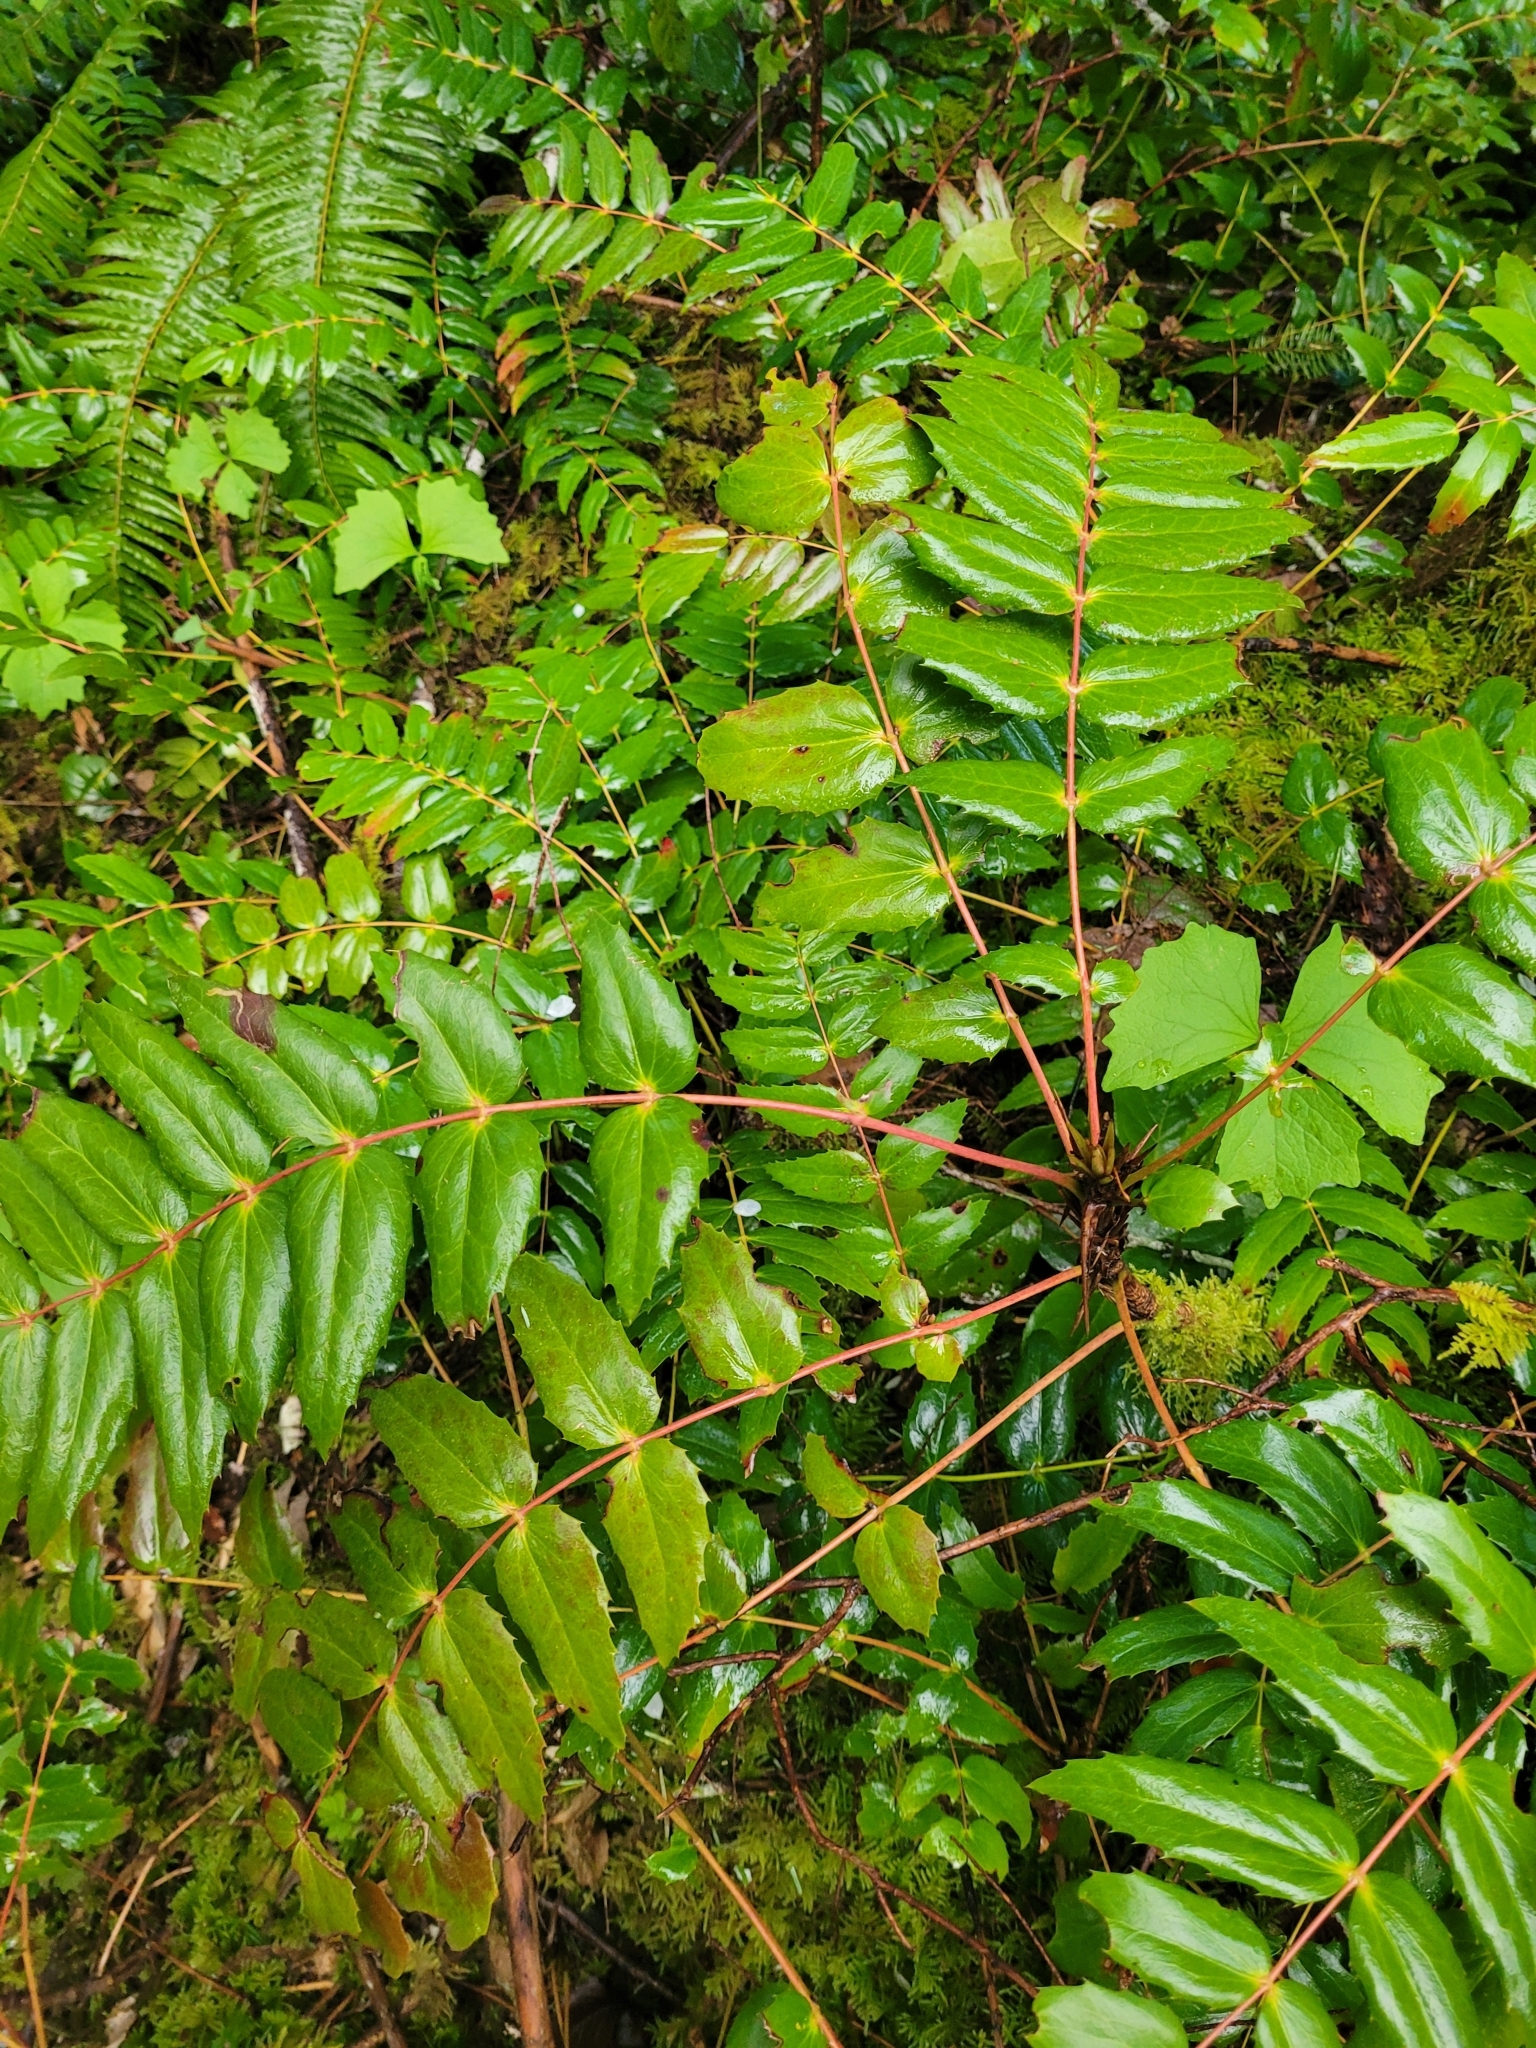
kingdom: Plantae
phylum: Tracheophyta
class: Magnoliopsida
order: Ranunculales
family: Berberidaceae
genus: Mahonia
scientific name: Mahonia nervosa
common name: Cascade oregon-grape
